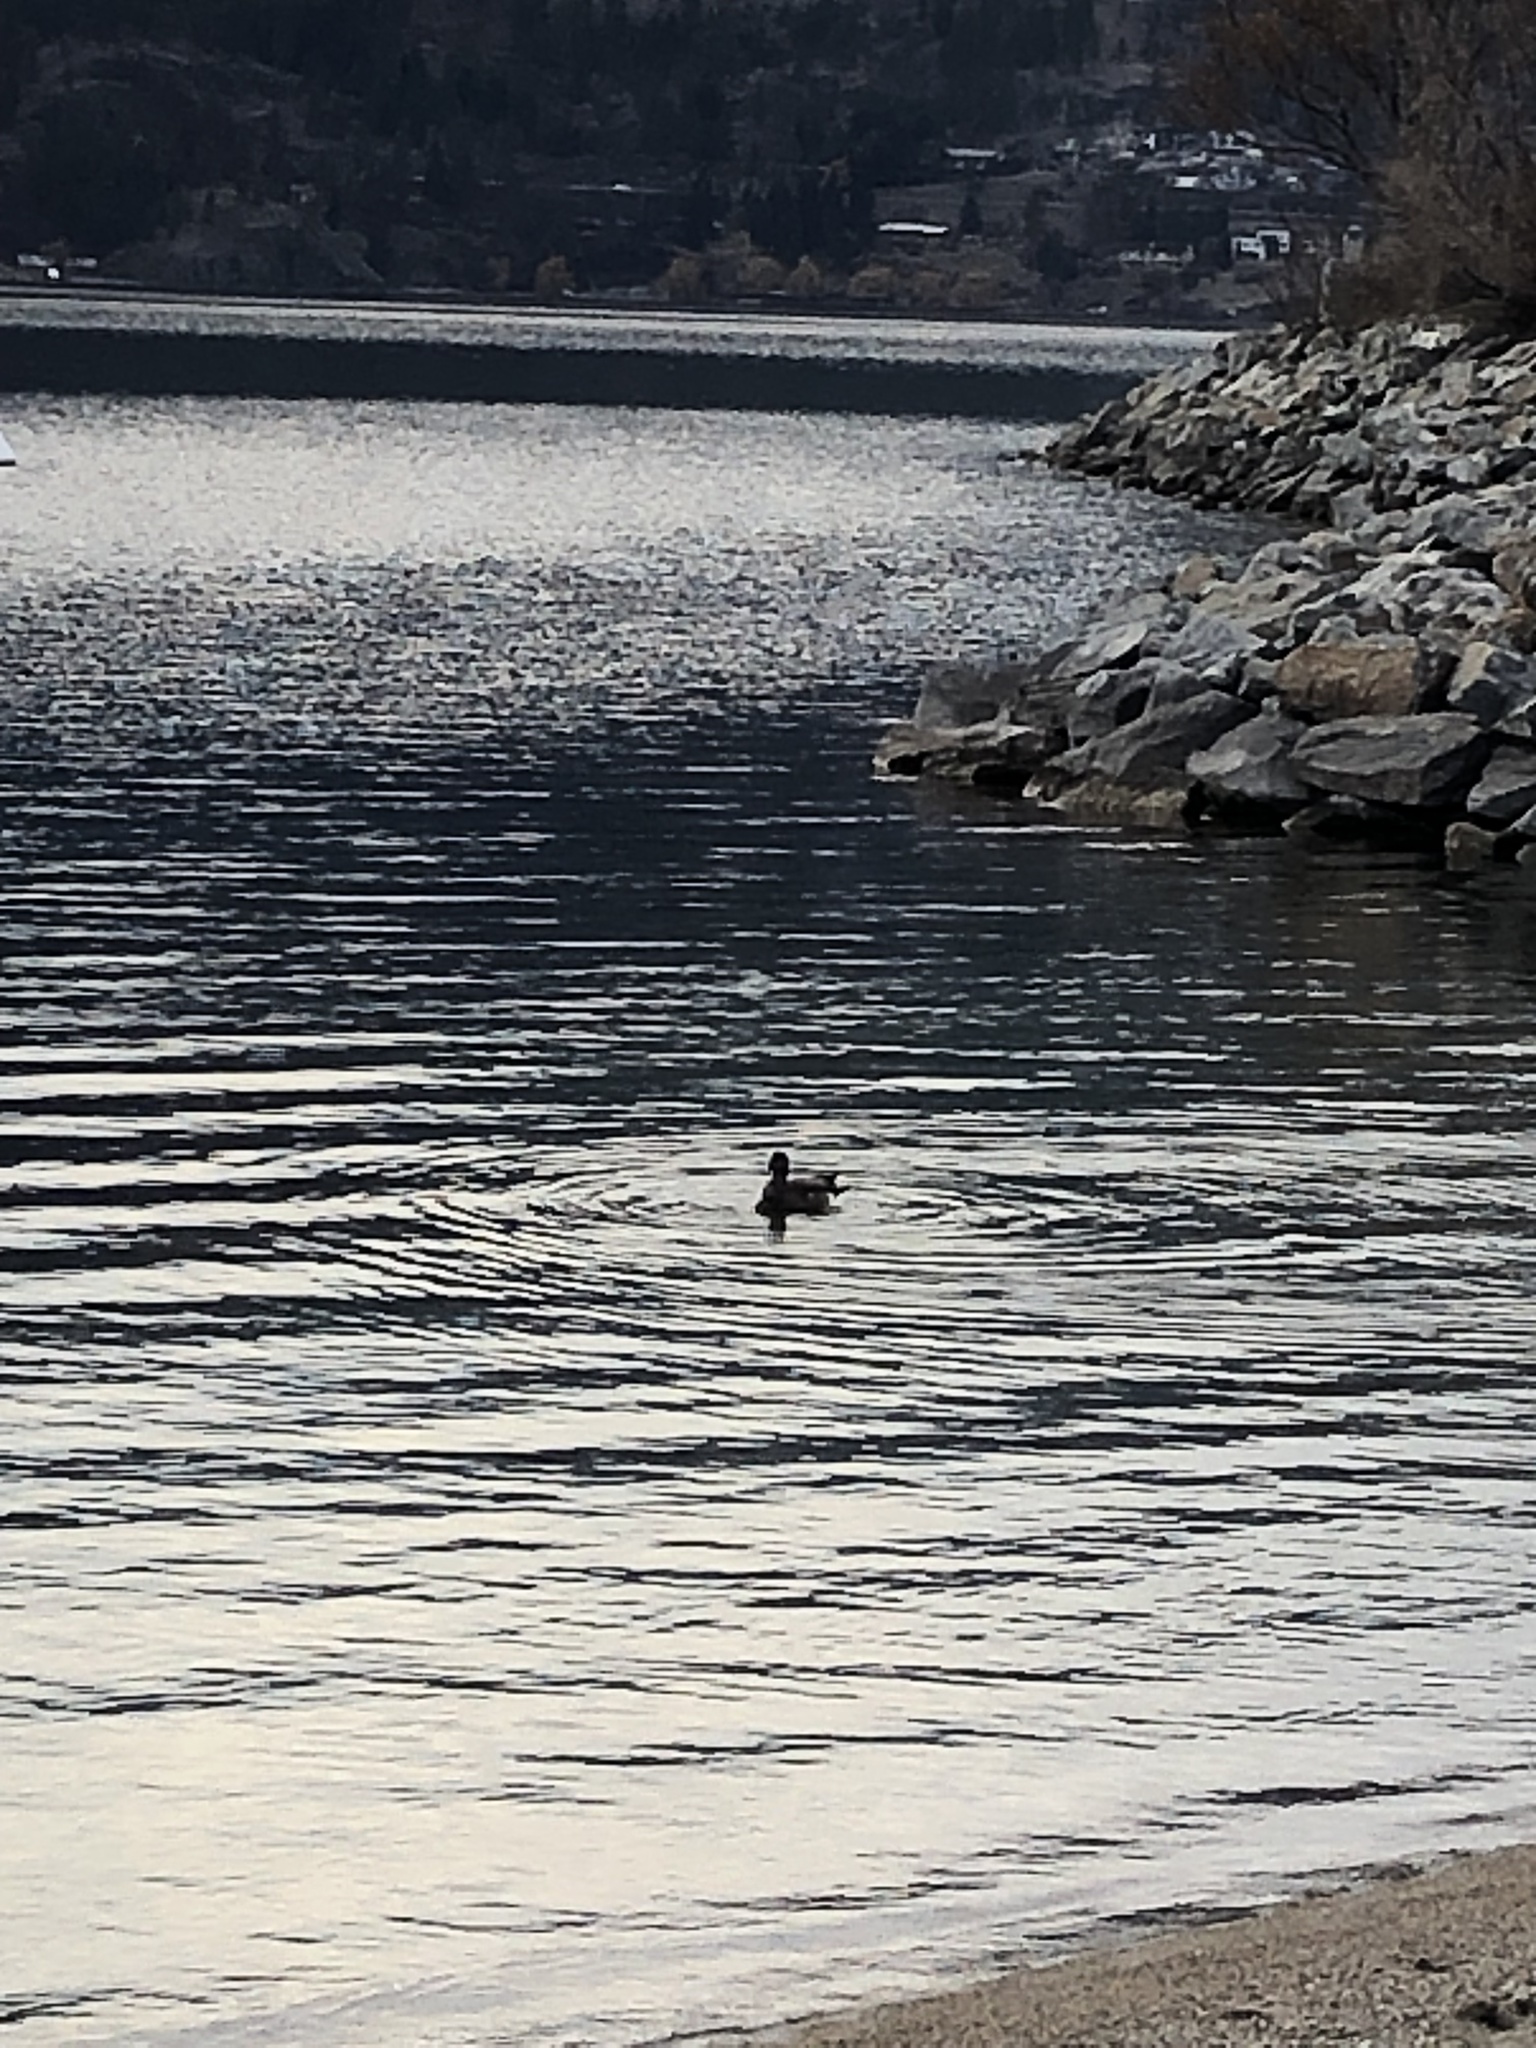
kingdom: Animalia
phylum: Chordata
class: Aves
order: Anseriformes
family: Anatidae
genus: Mareca
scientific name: Mareca americana
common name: American wigeon
